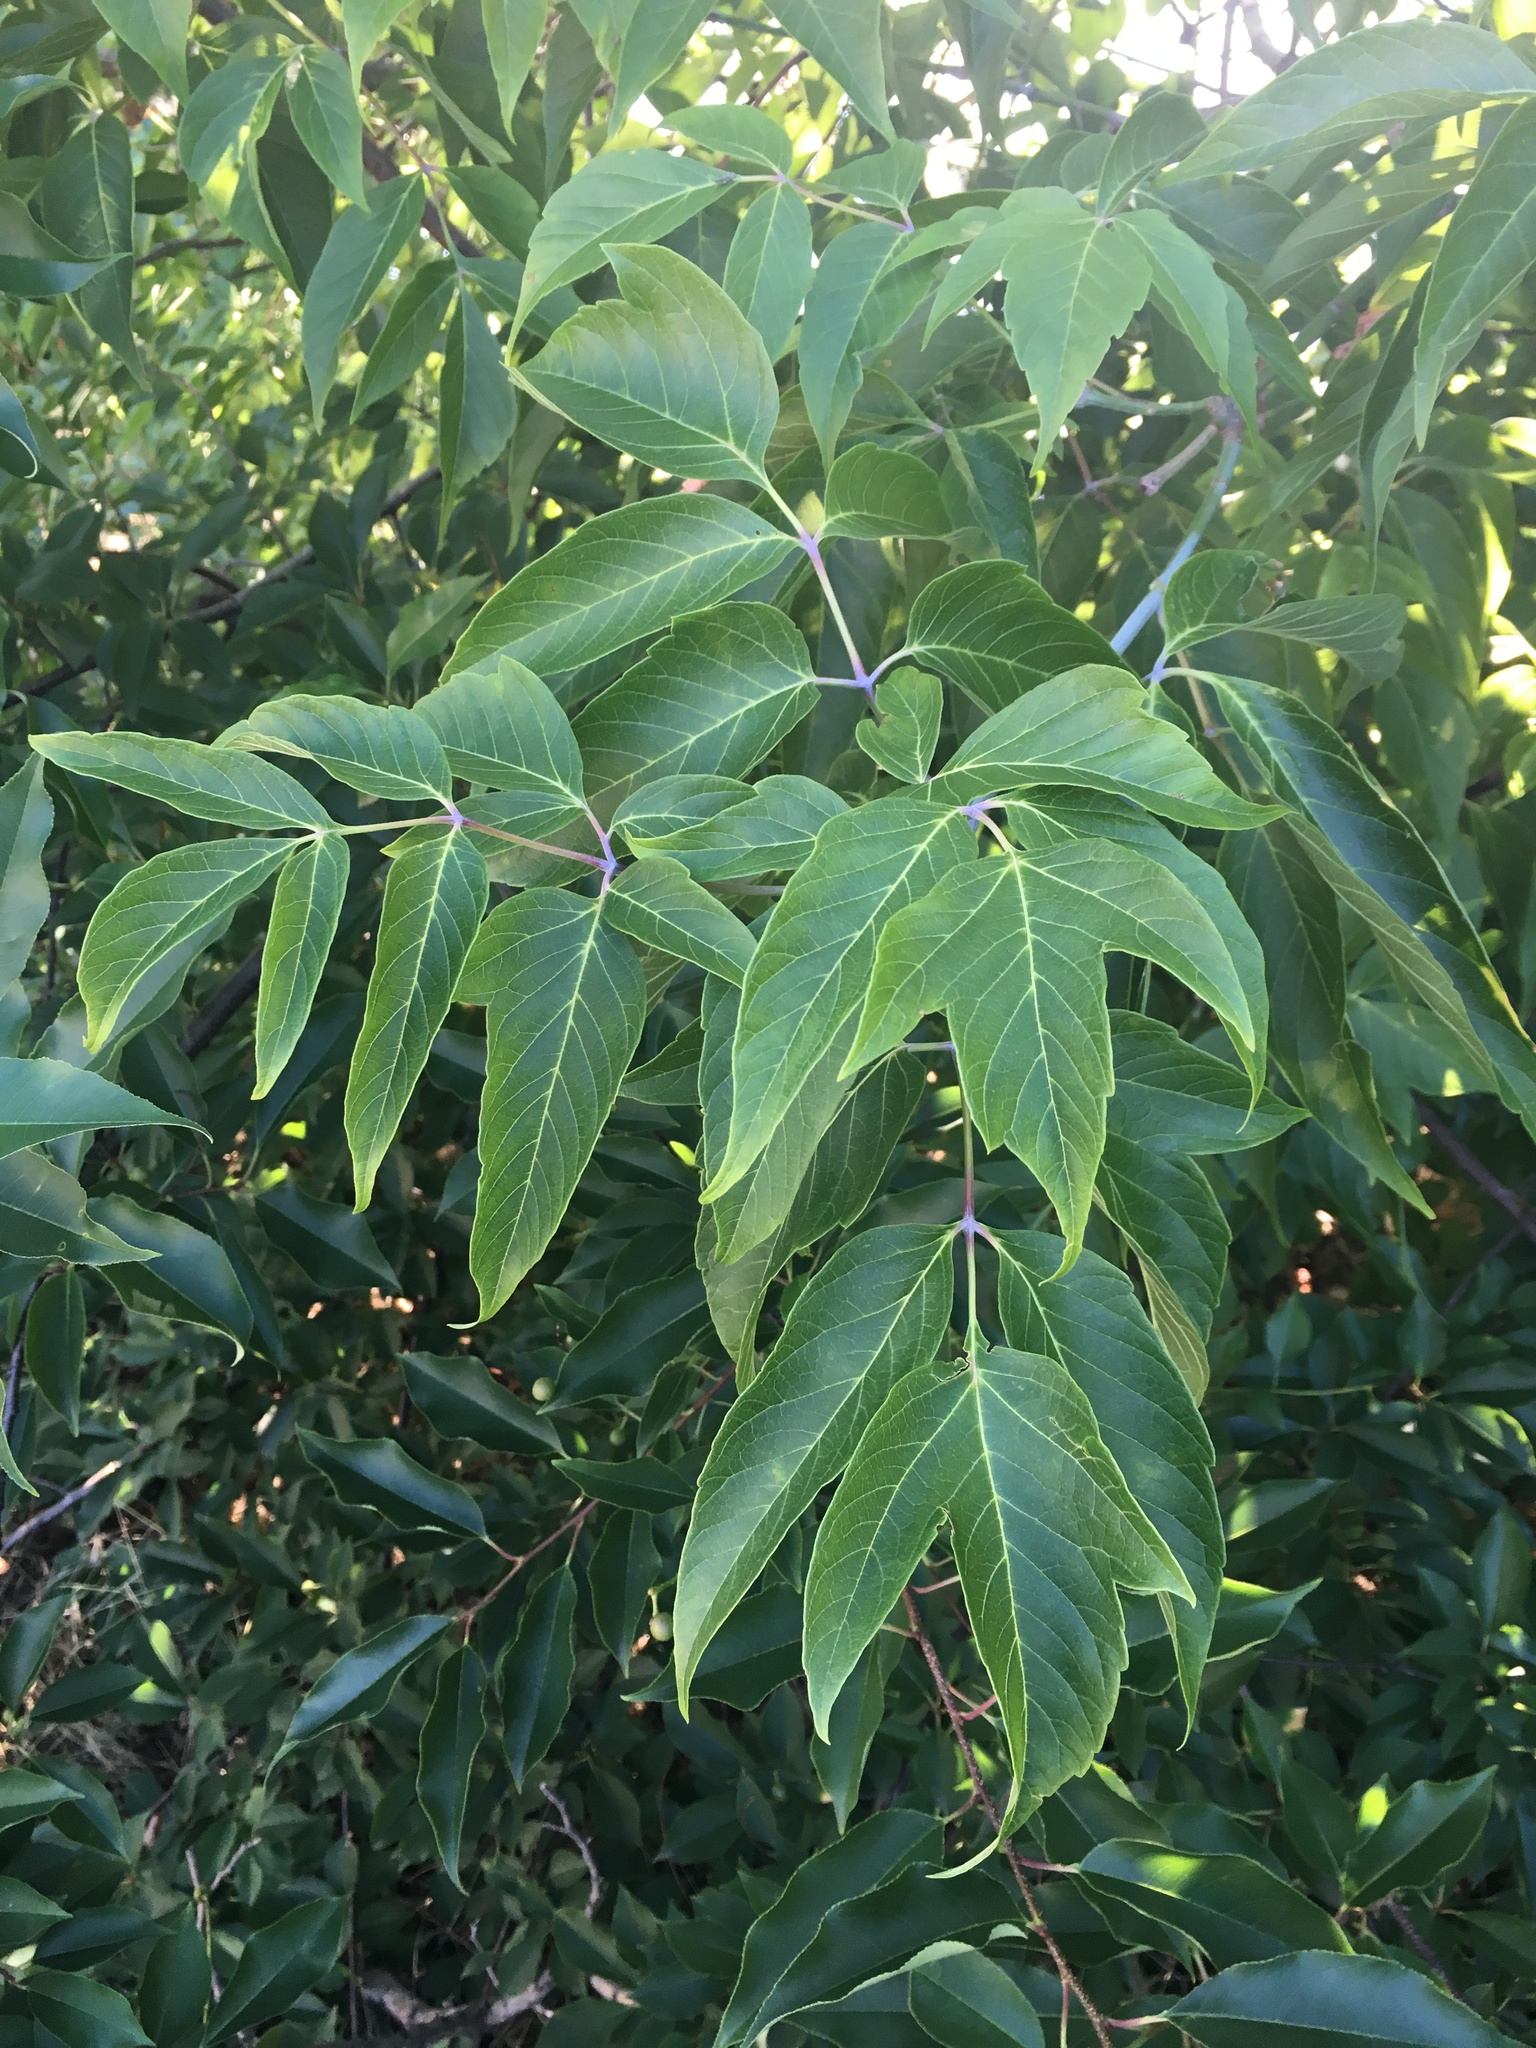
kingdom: Plantae
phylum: Tracheophyta
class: Magnoliopsida
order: Sapindales
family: Sapindaceae
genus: Acer
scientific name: Acer negundo
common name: Ashleaf maple
